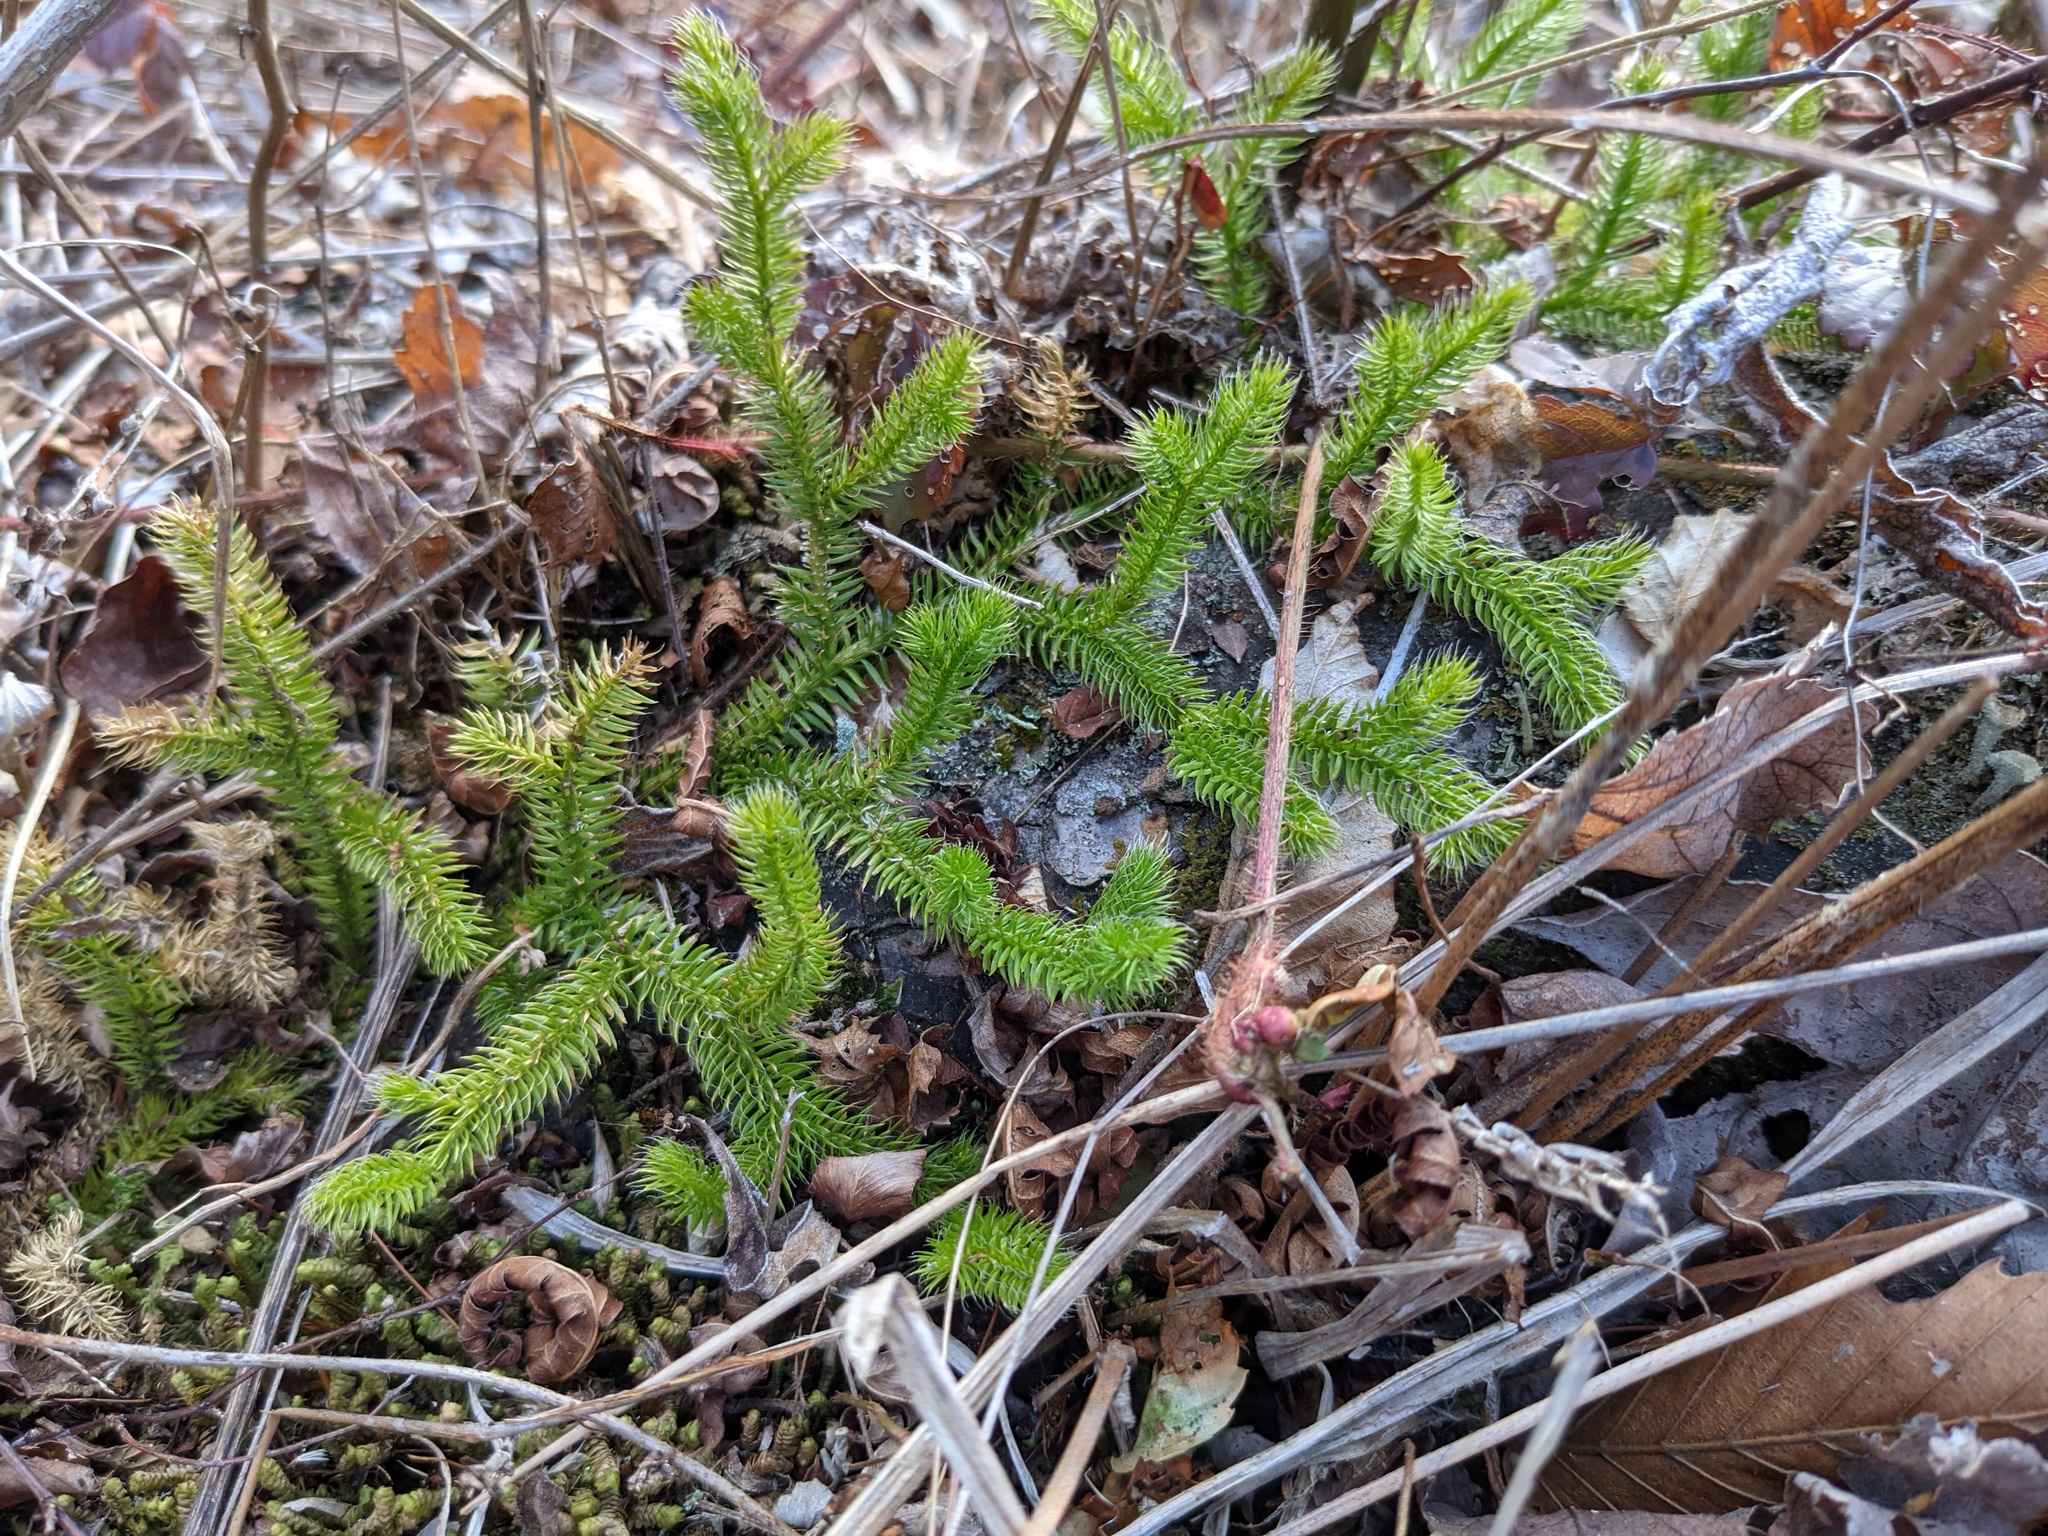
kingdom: Plantae
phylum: Tracheophyta
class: Lycopodiopsida
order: Lycopodiales
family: Lycopodiaceae
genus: Lycopodium
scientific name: Lycopodium clavatum
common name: Stag's-horn clubmoss
